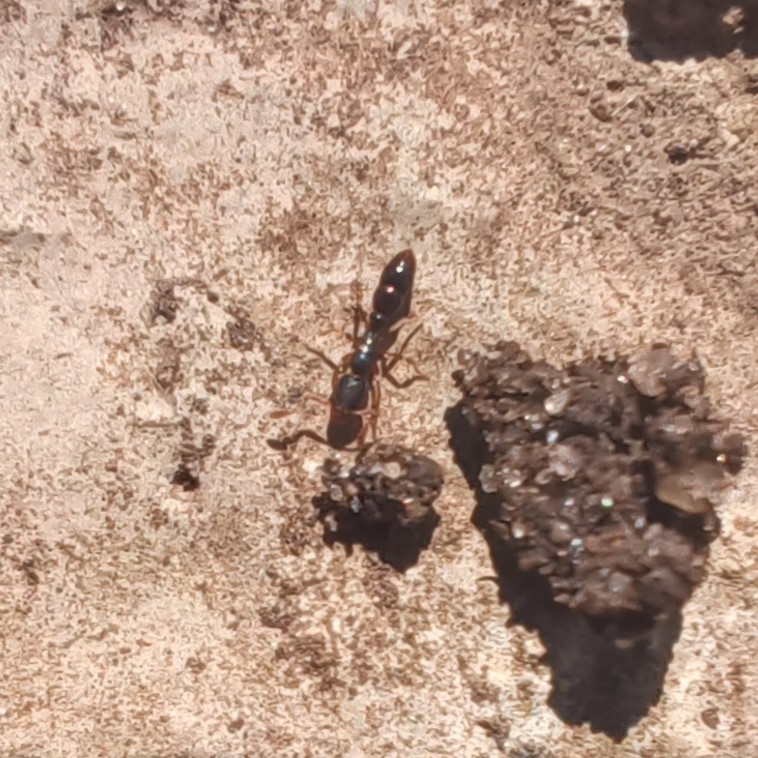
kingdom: Animalia
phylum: Arthropoda
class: Insecta
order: Hymenoptera
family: Formicidae
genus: Ponera
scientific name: Ponera pennsylvanica
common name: Pennsylvania ponera
